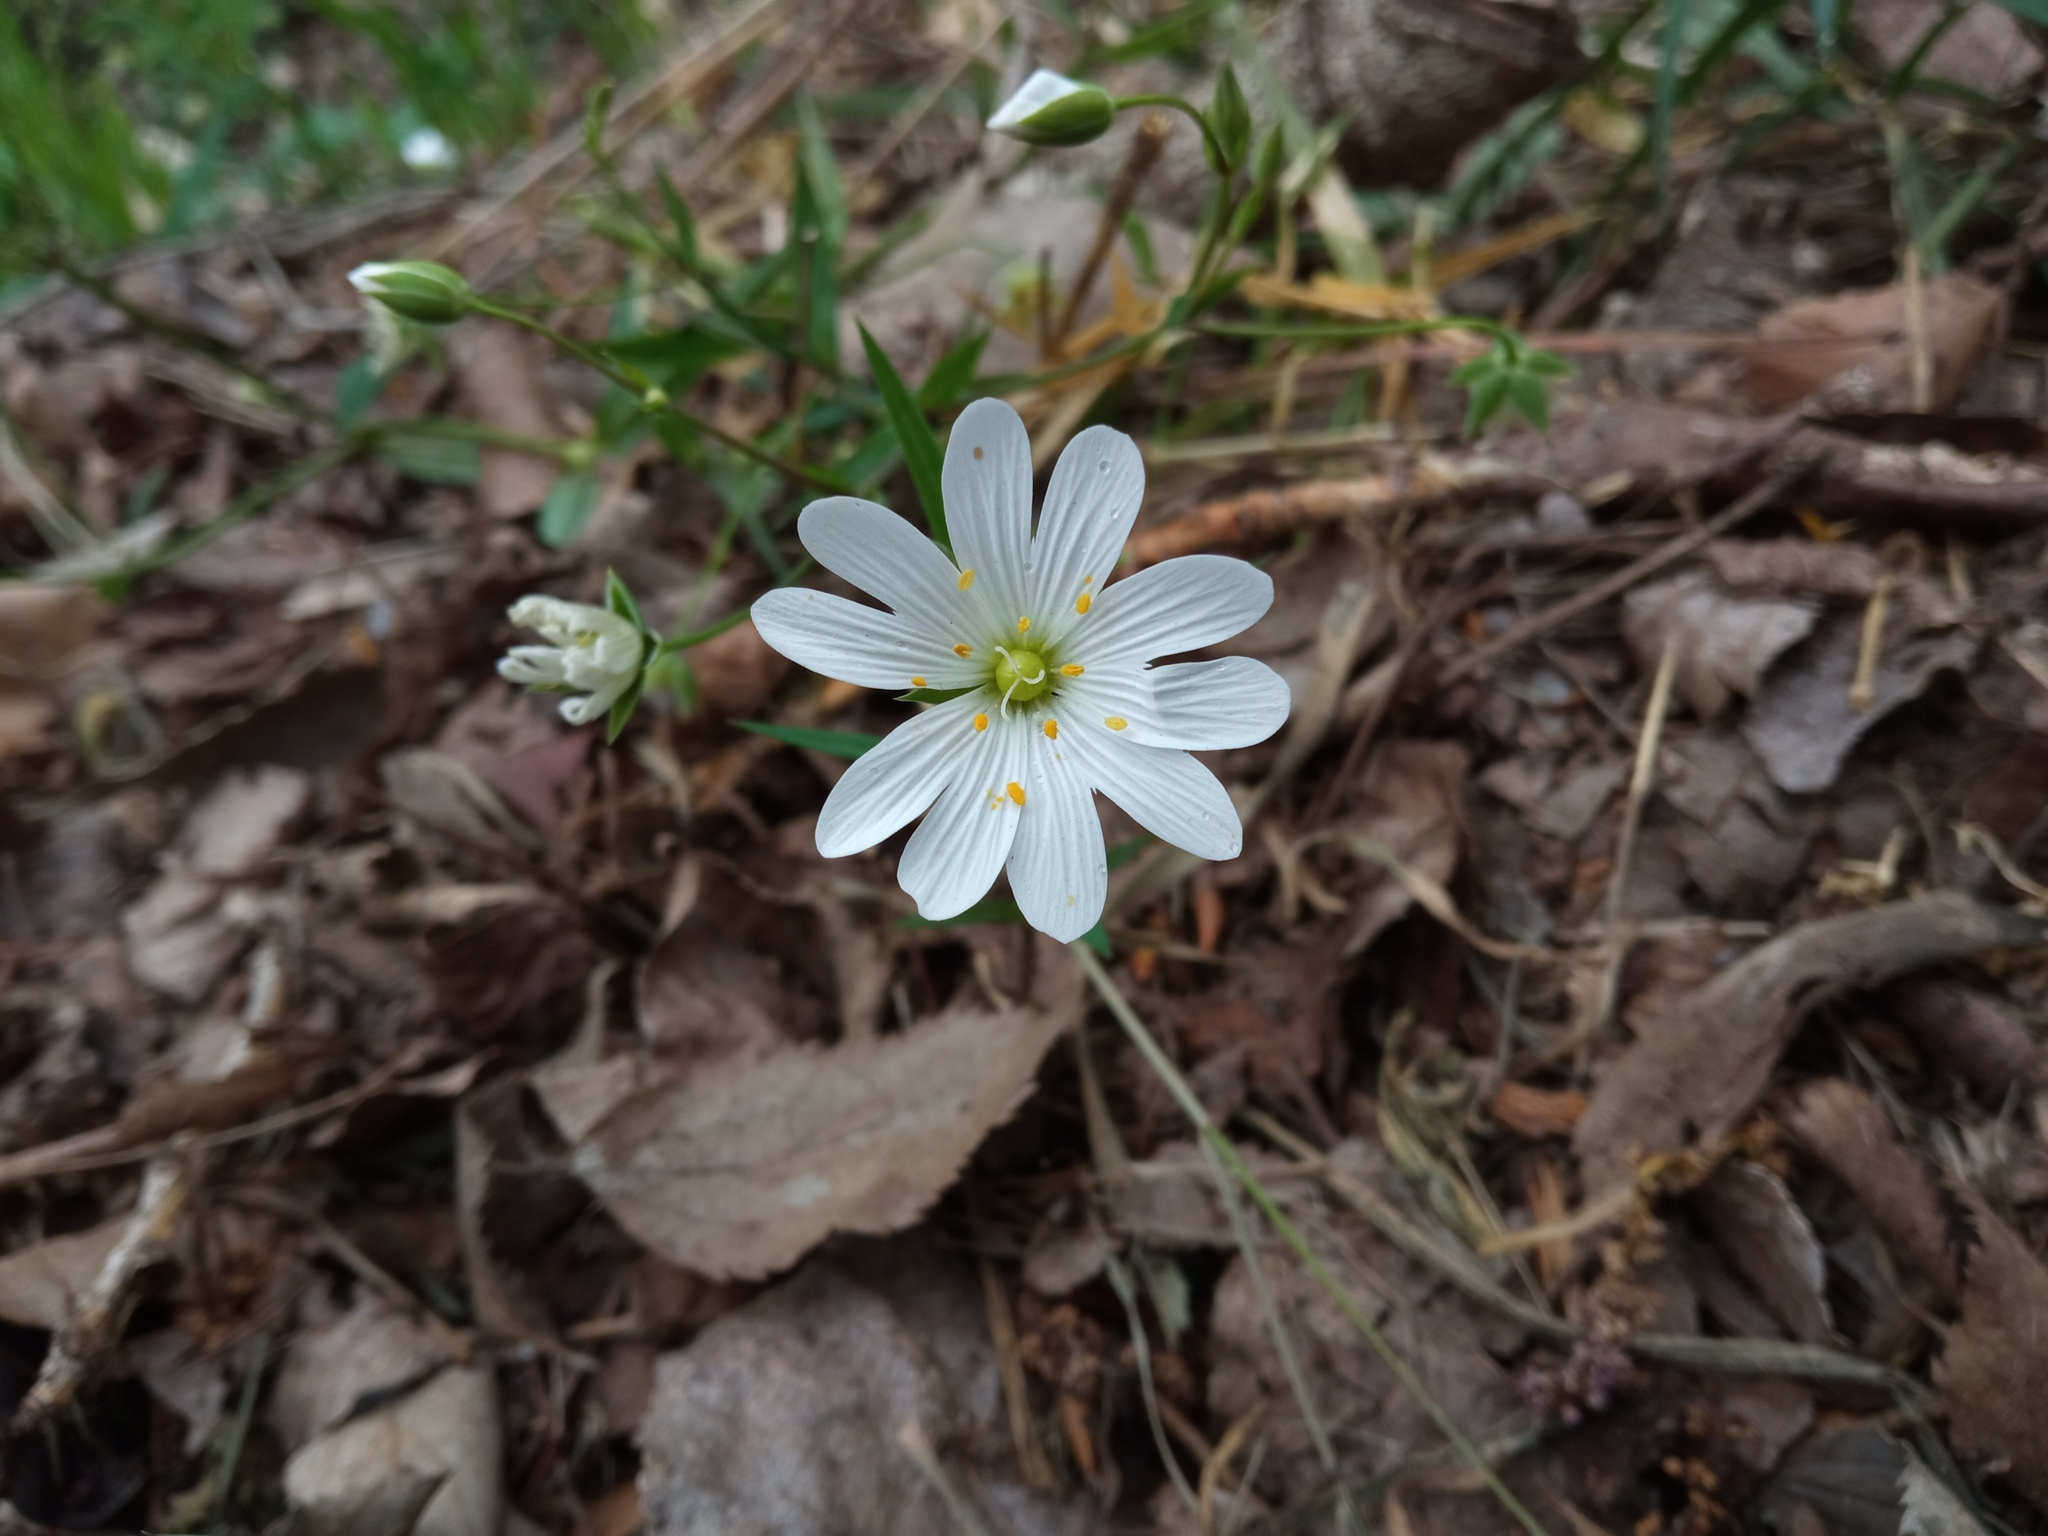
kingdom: Plantae
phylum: Tracheophyta
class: Magnoliopsida
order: Caryophyllales
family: Caryophyllaceae
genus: Rabelera
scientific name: Rabelera holostea
